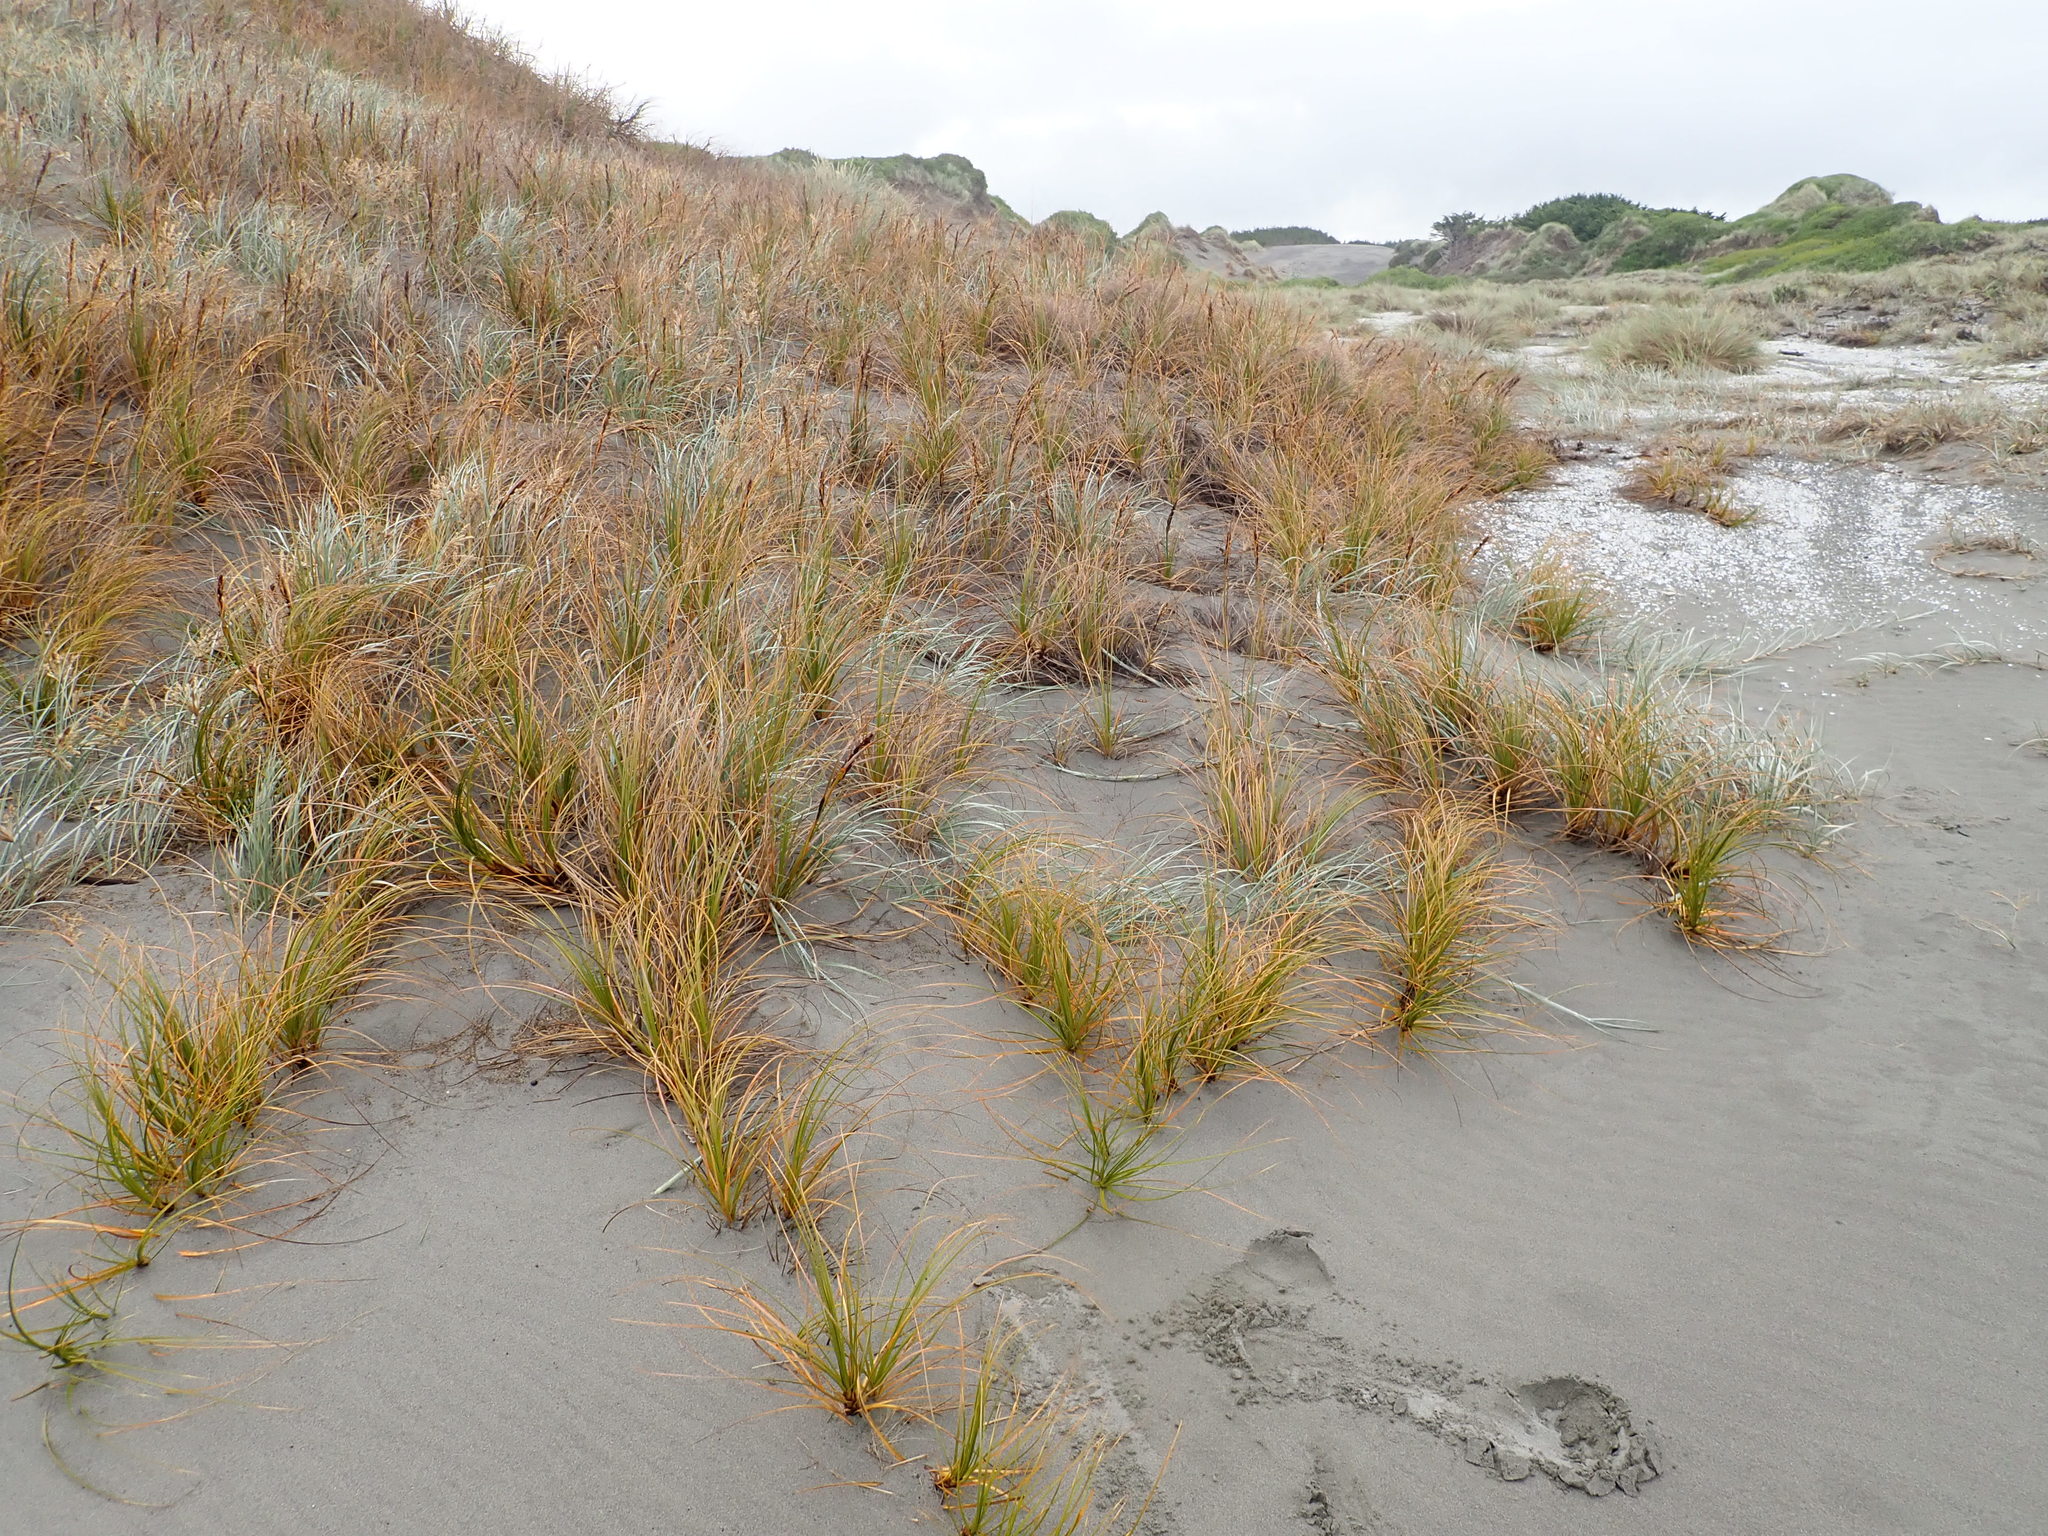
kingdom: Plantae
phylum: Tracheophyta
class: Liliopsida
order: Poales
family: Cyperaceae
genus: Ficinia
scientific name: Ficinia spiralis
